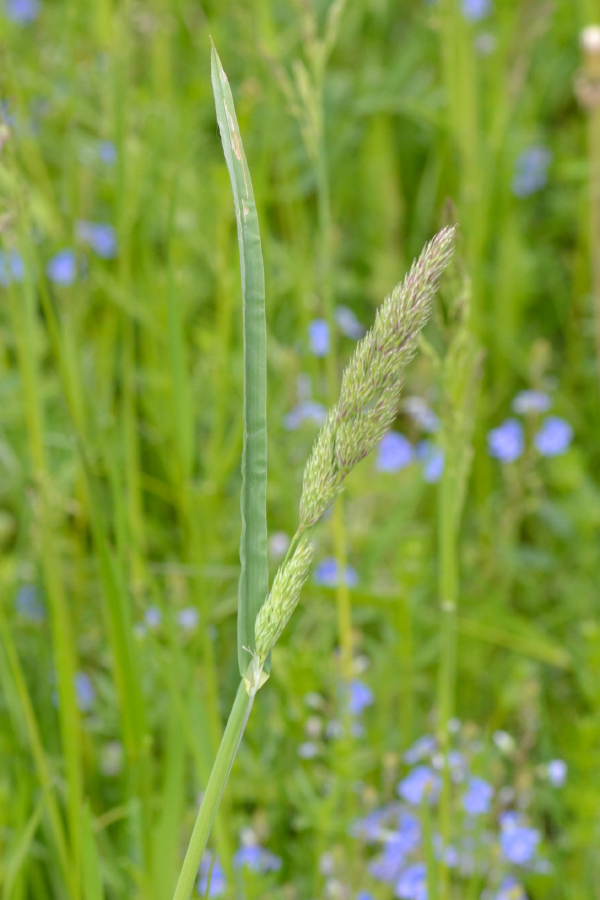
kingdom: Plantae
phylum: Tracheophyta
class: Liliopsida
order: Poales
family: Poaceae
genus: Dactylis
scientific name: Dactylis glomerata
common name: Orchardgrass
